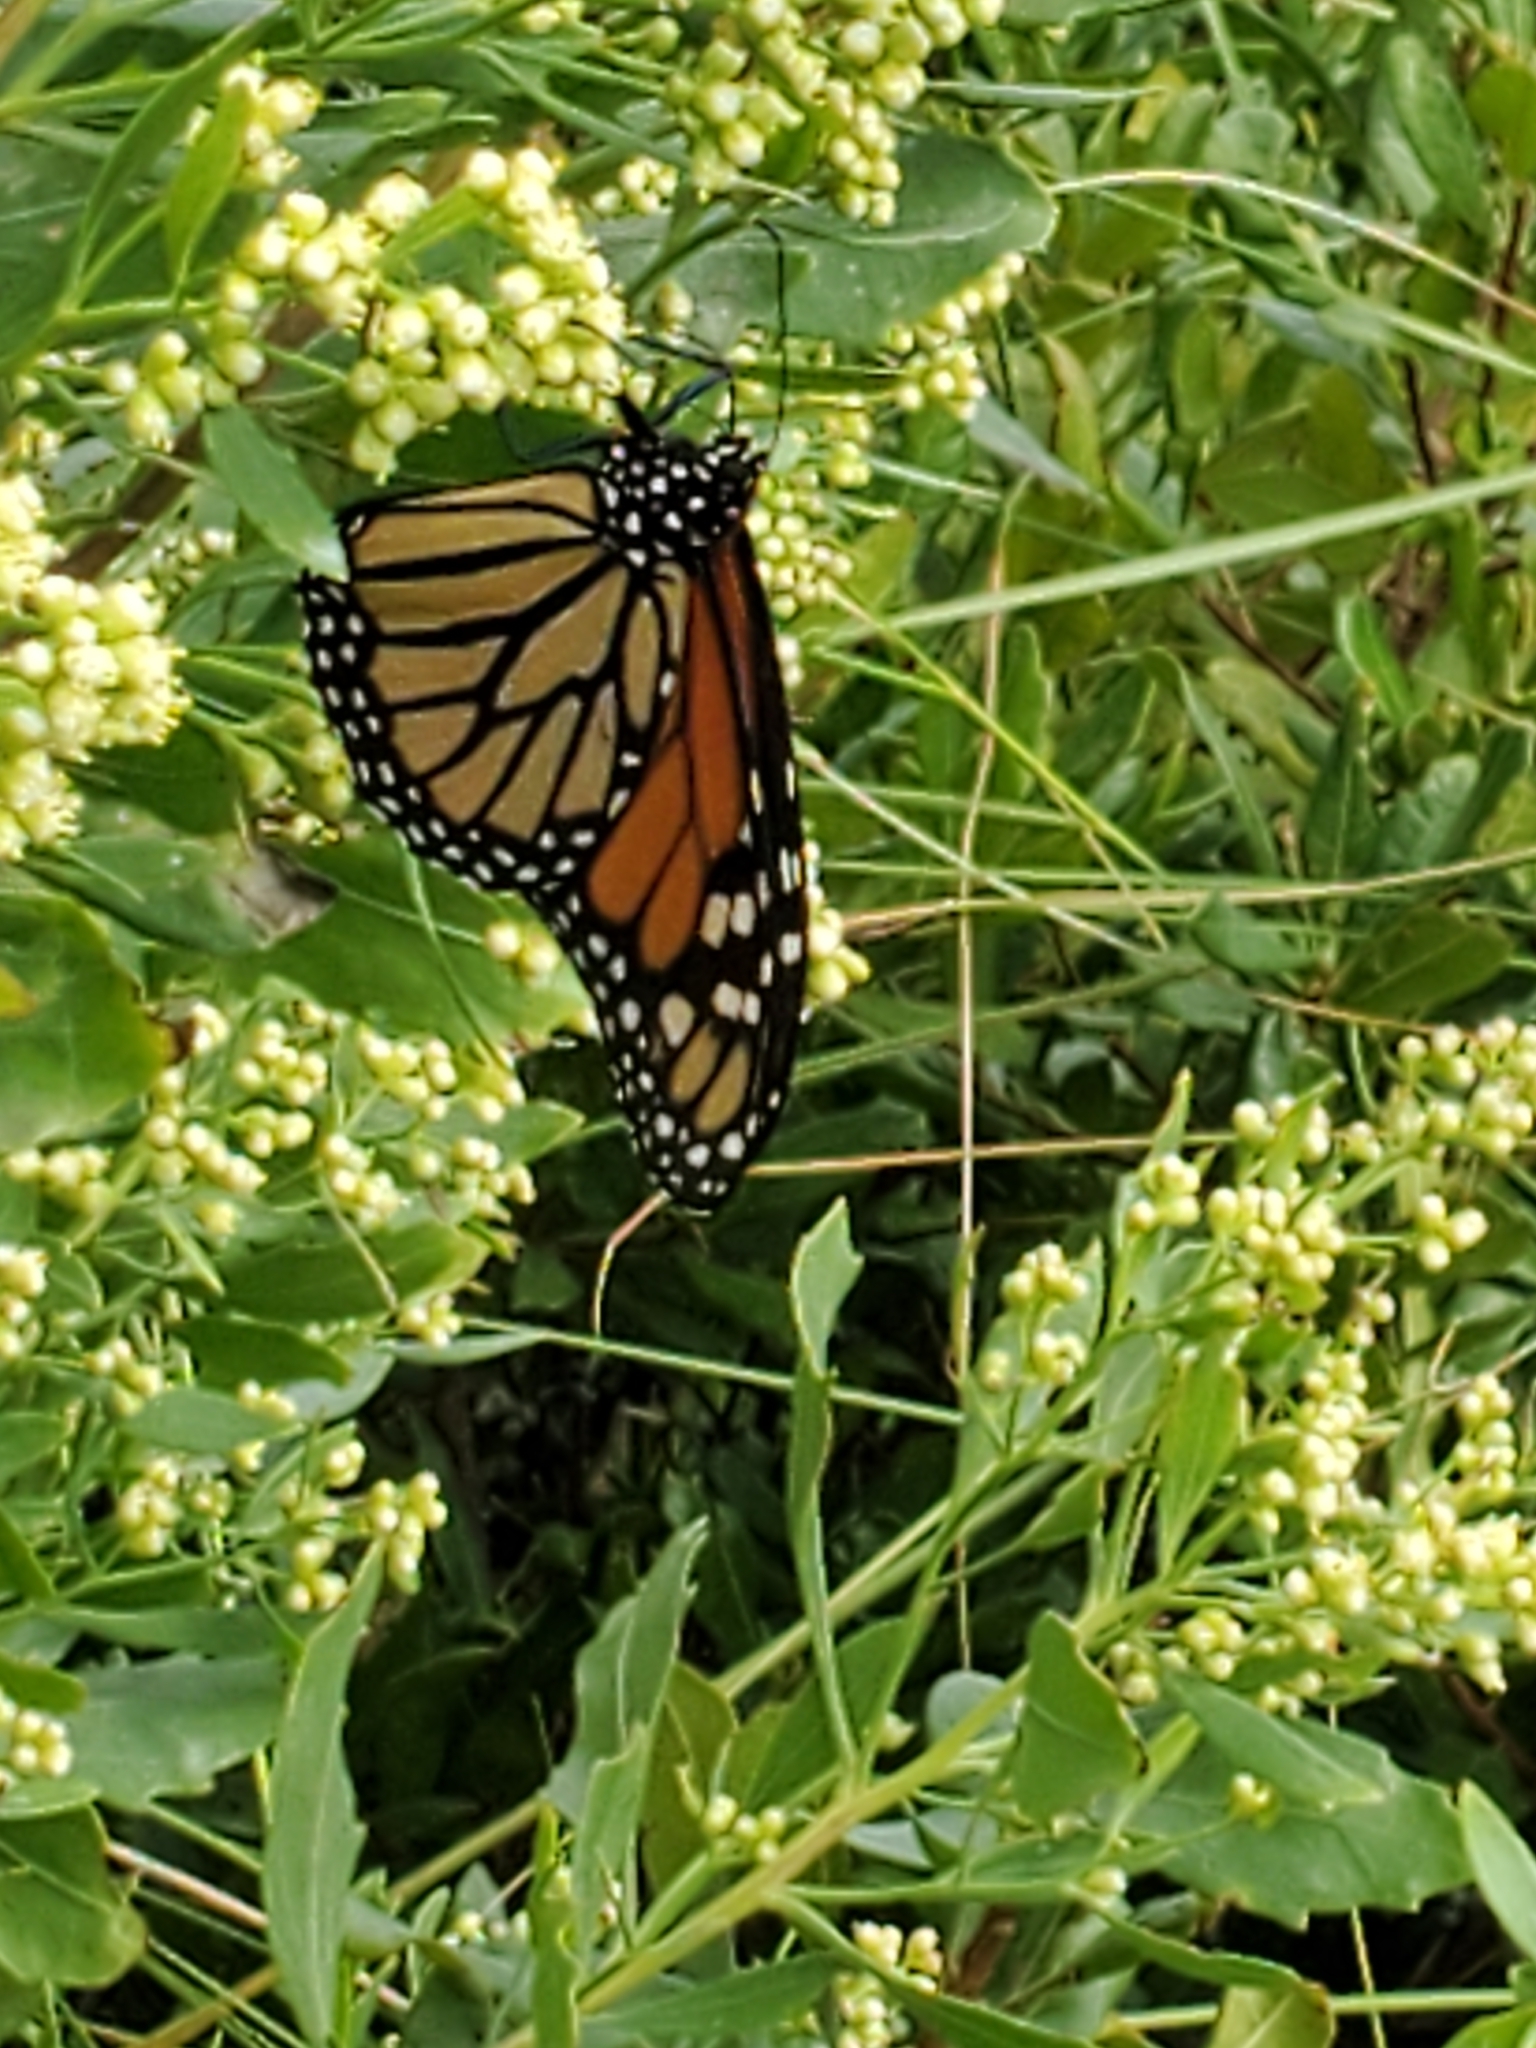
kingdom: Animalia
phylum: Arthropoda
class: Insecta
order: Lepidoptera
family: Nymphalidae
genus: Danaus
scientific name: Danaus plexippus
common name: Monarch
